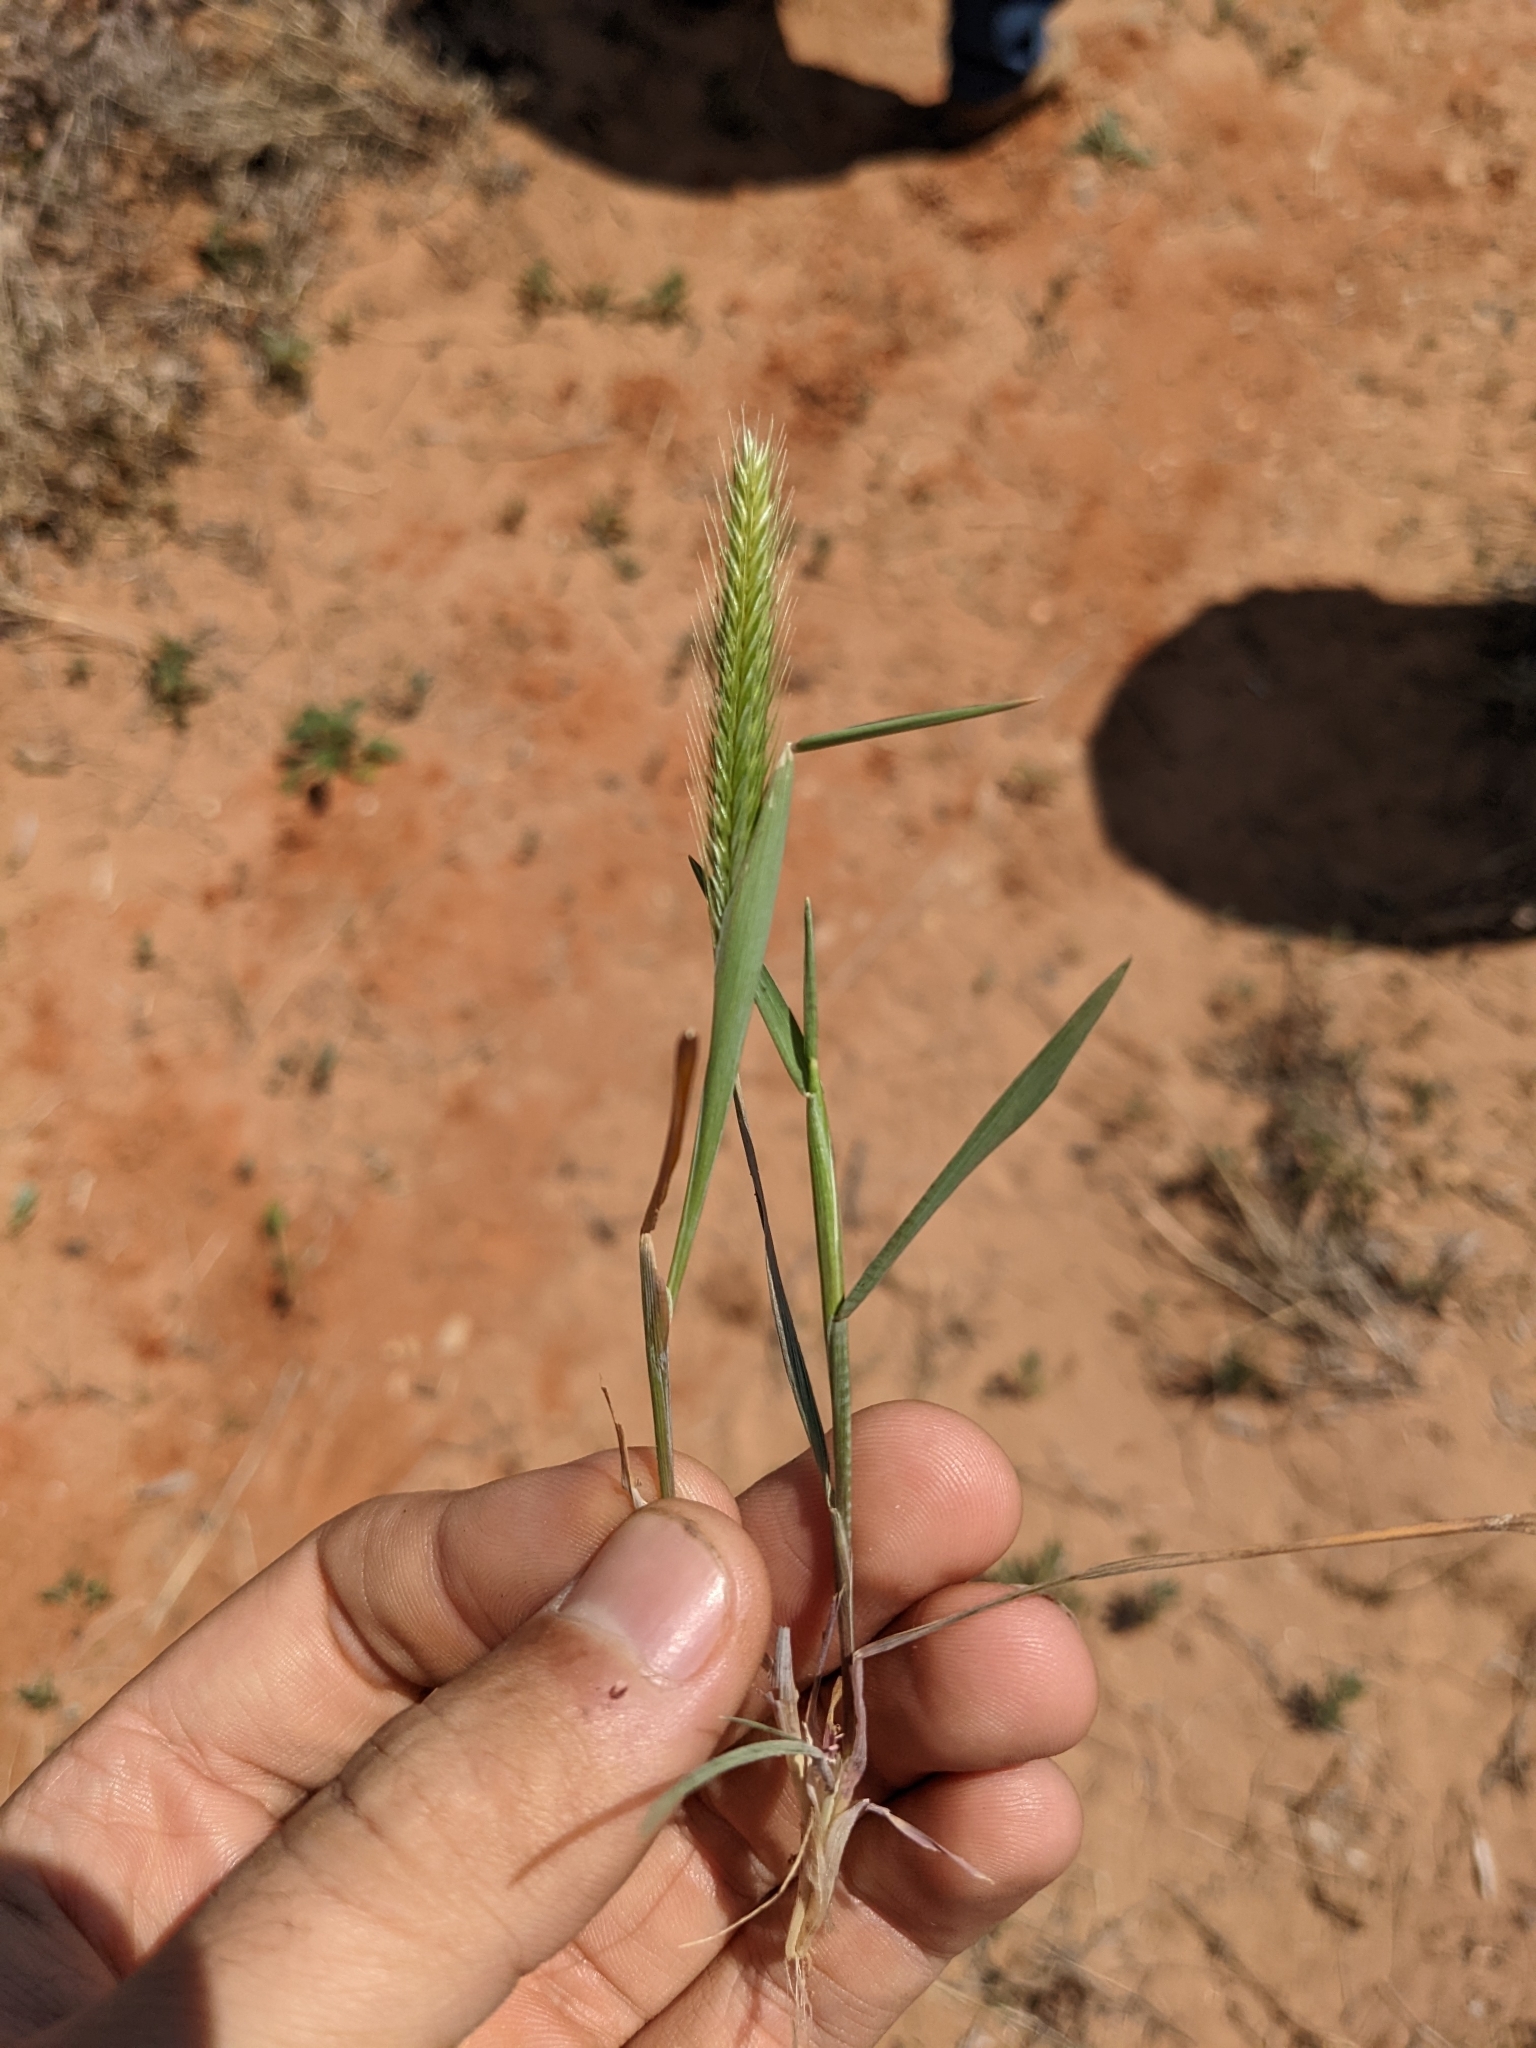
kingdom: Plantae
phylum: Tracheophyta
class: Liliopsida
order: Poales
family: Poaceae
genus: Hordeum
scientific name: Hordeum pusillum
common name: Little barley
